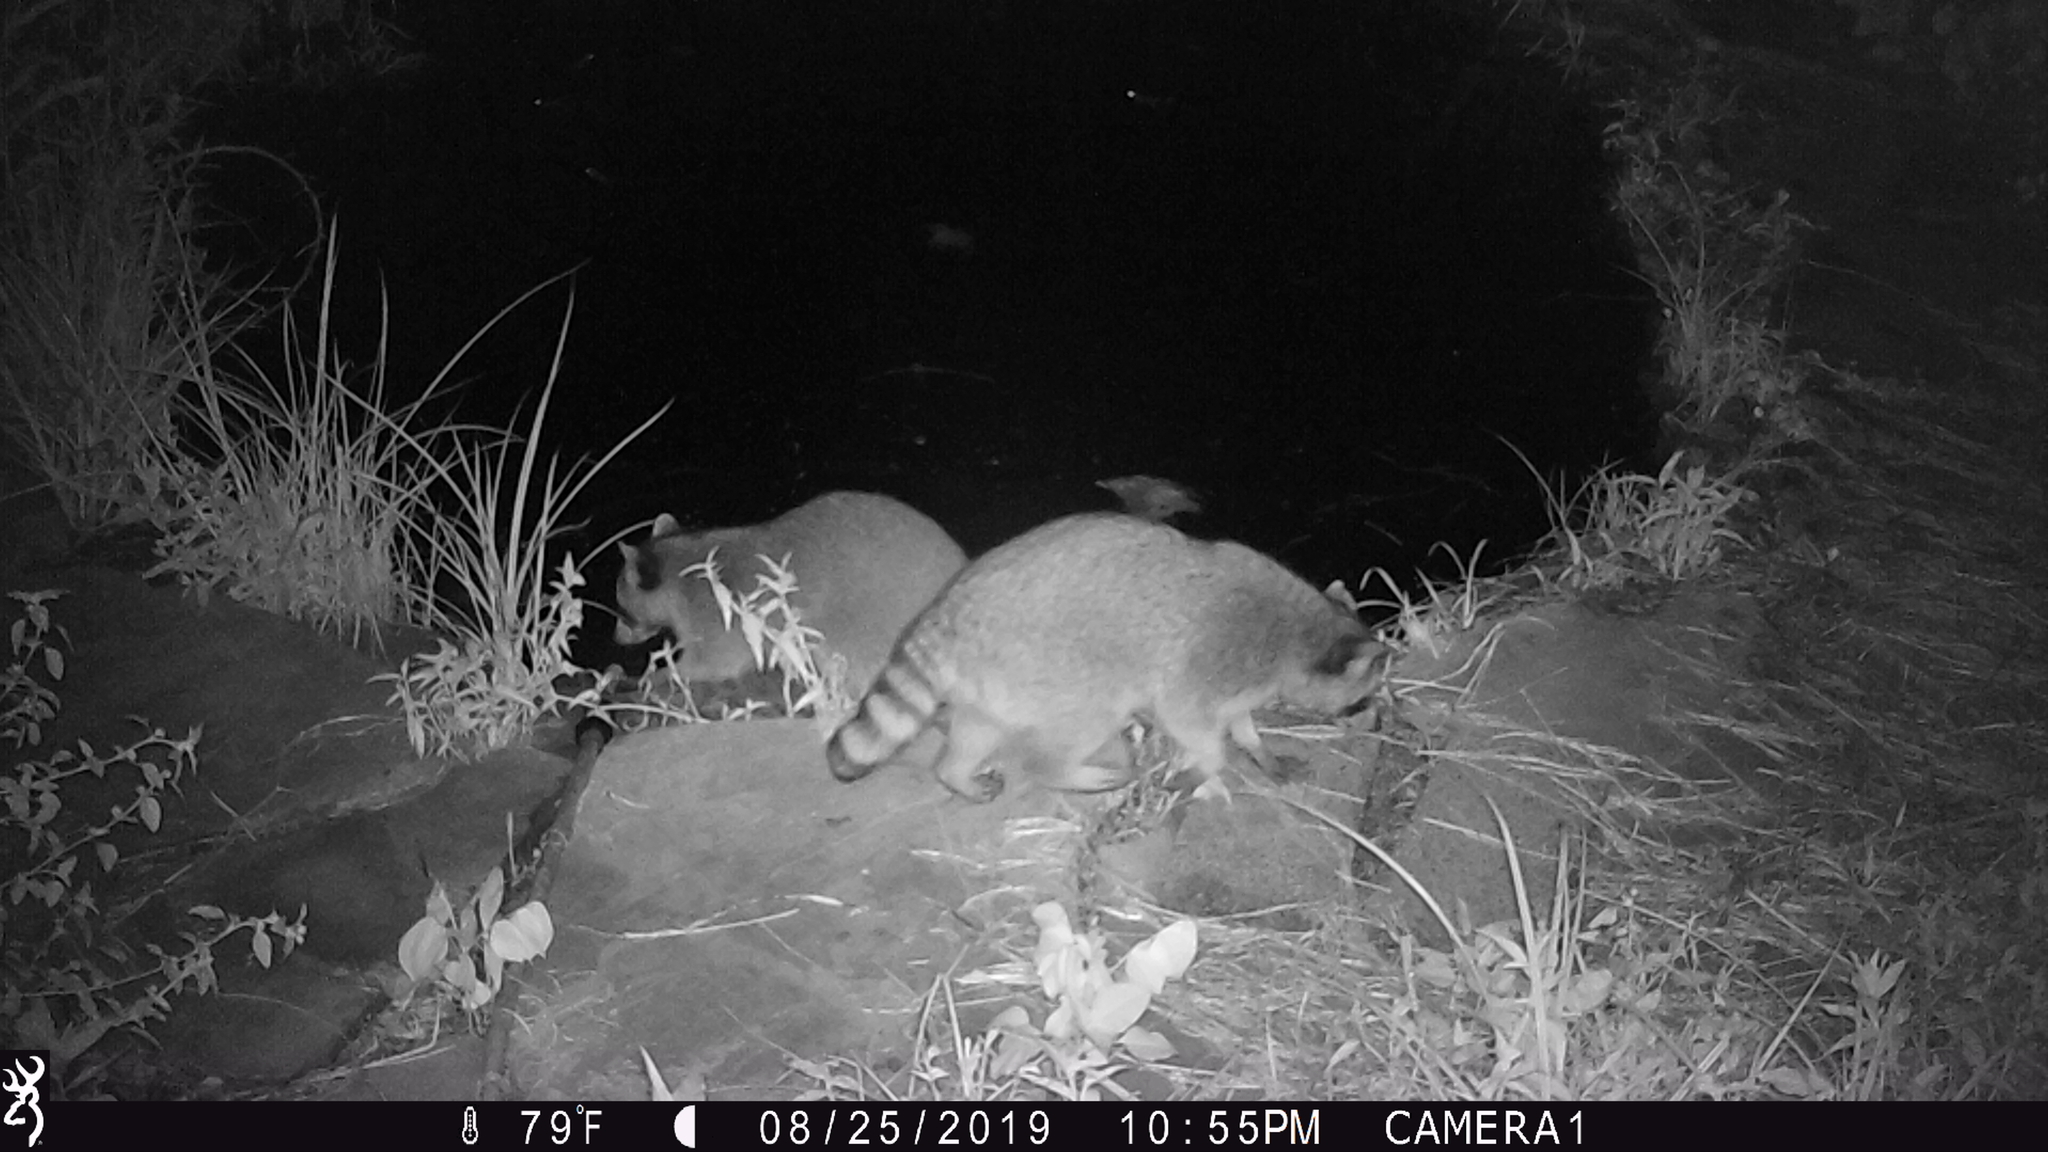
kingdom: Animalia
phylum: Chordata
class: Mammalia
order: Carnivora
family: Procyonidae
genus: Procyon
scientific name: Procyon lotor
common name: Raccoon
